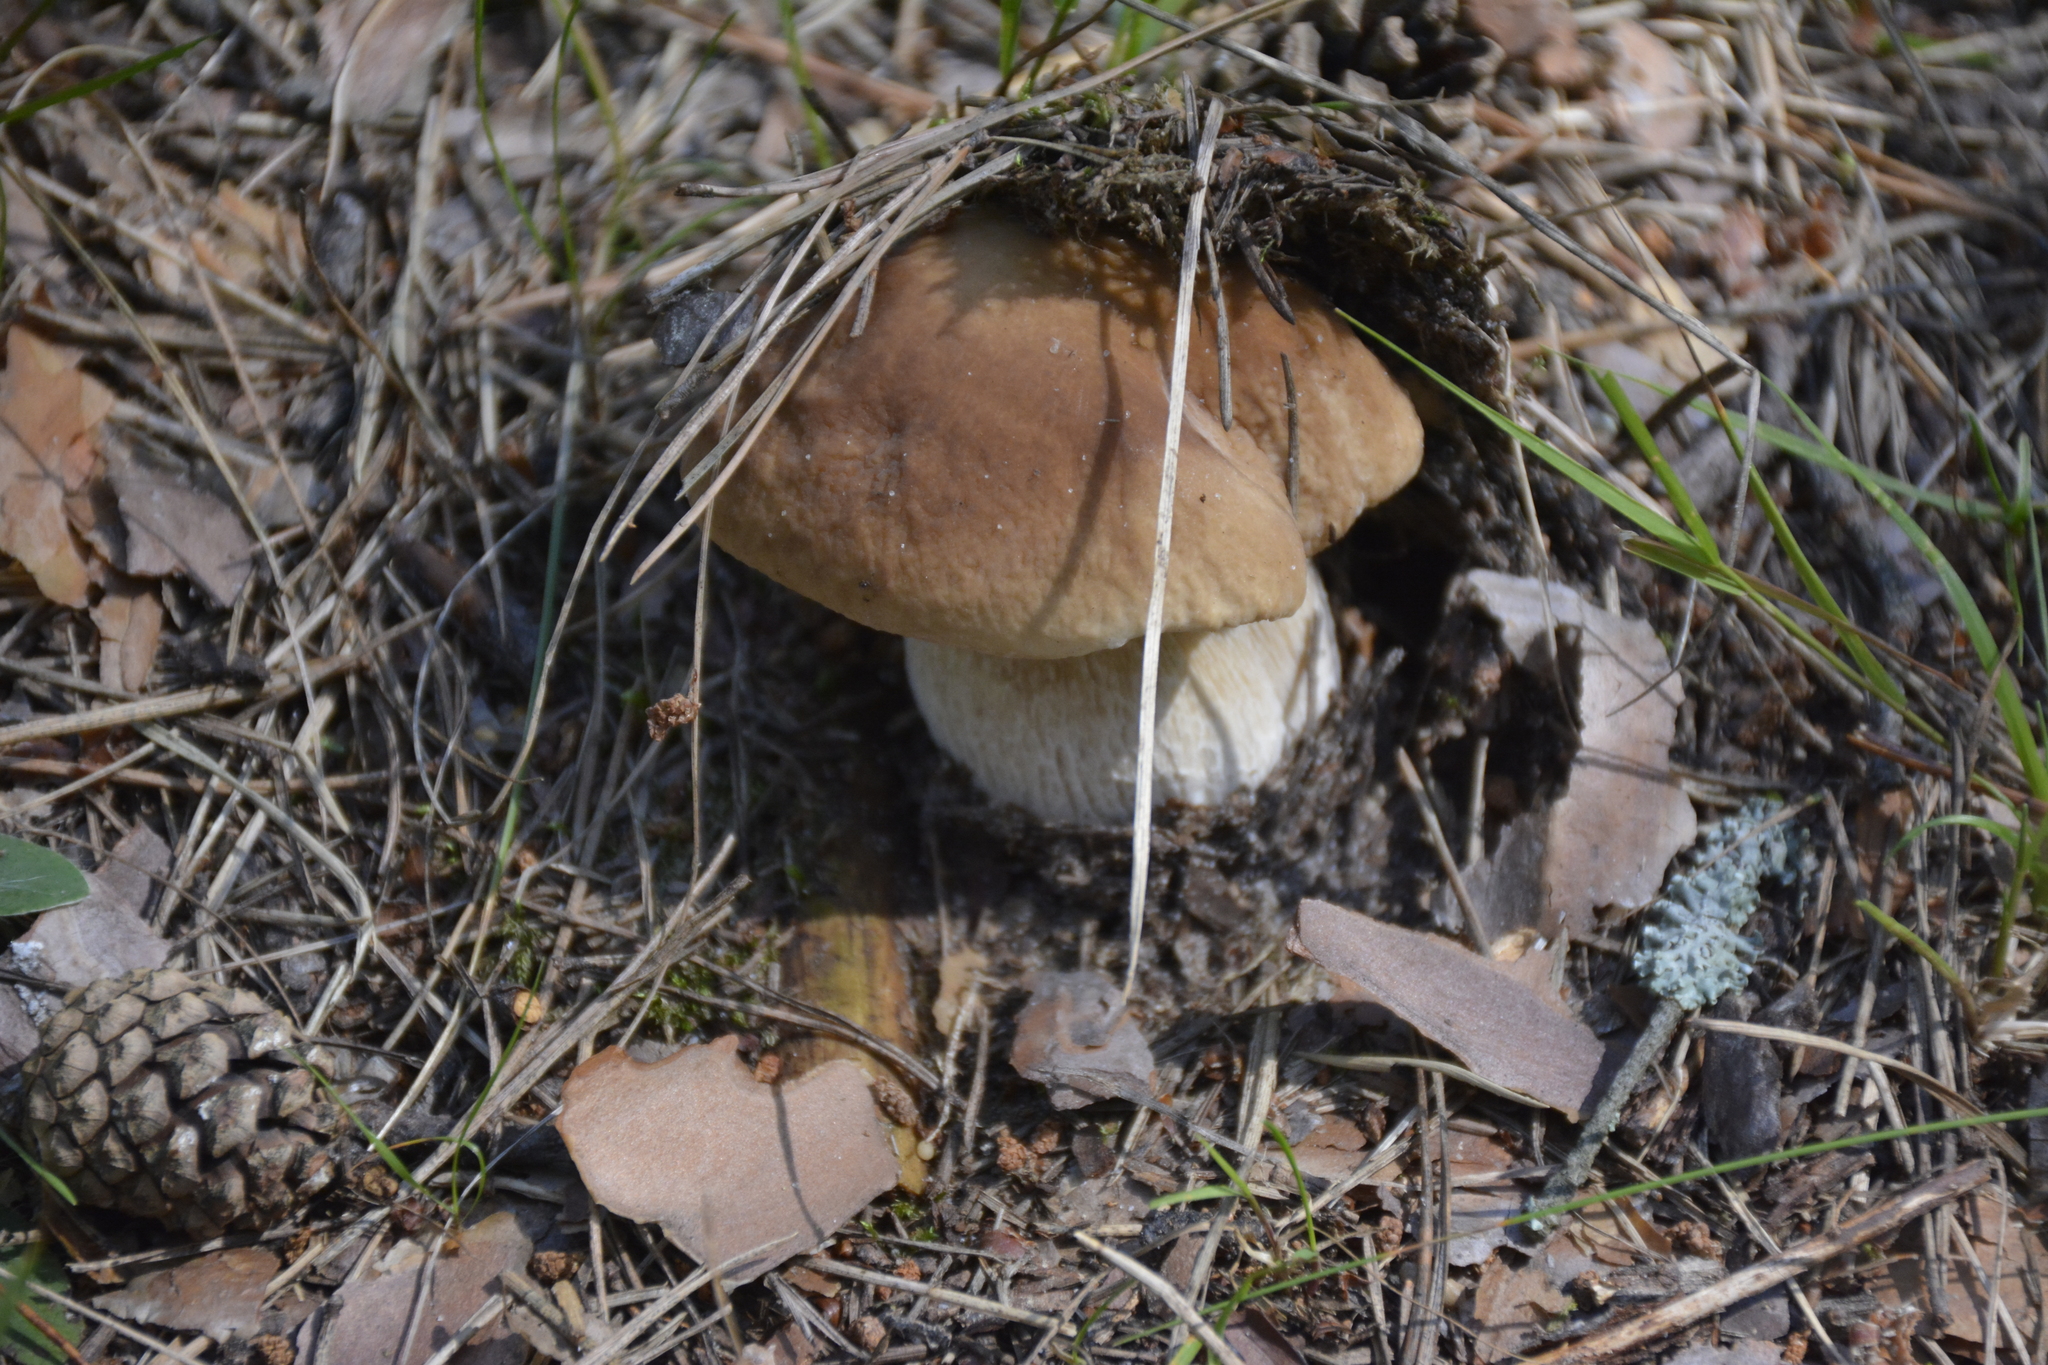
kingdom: Fungi
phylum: Basidiomycota
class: Agaricomycetes
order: Boletales
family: Boletaceae
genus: Boletus
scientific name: Boletus edulis
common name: Cep
